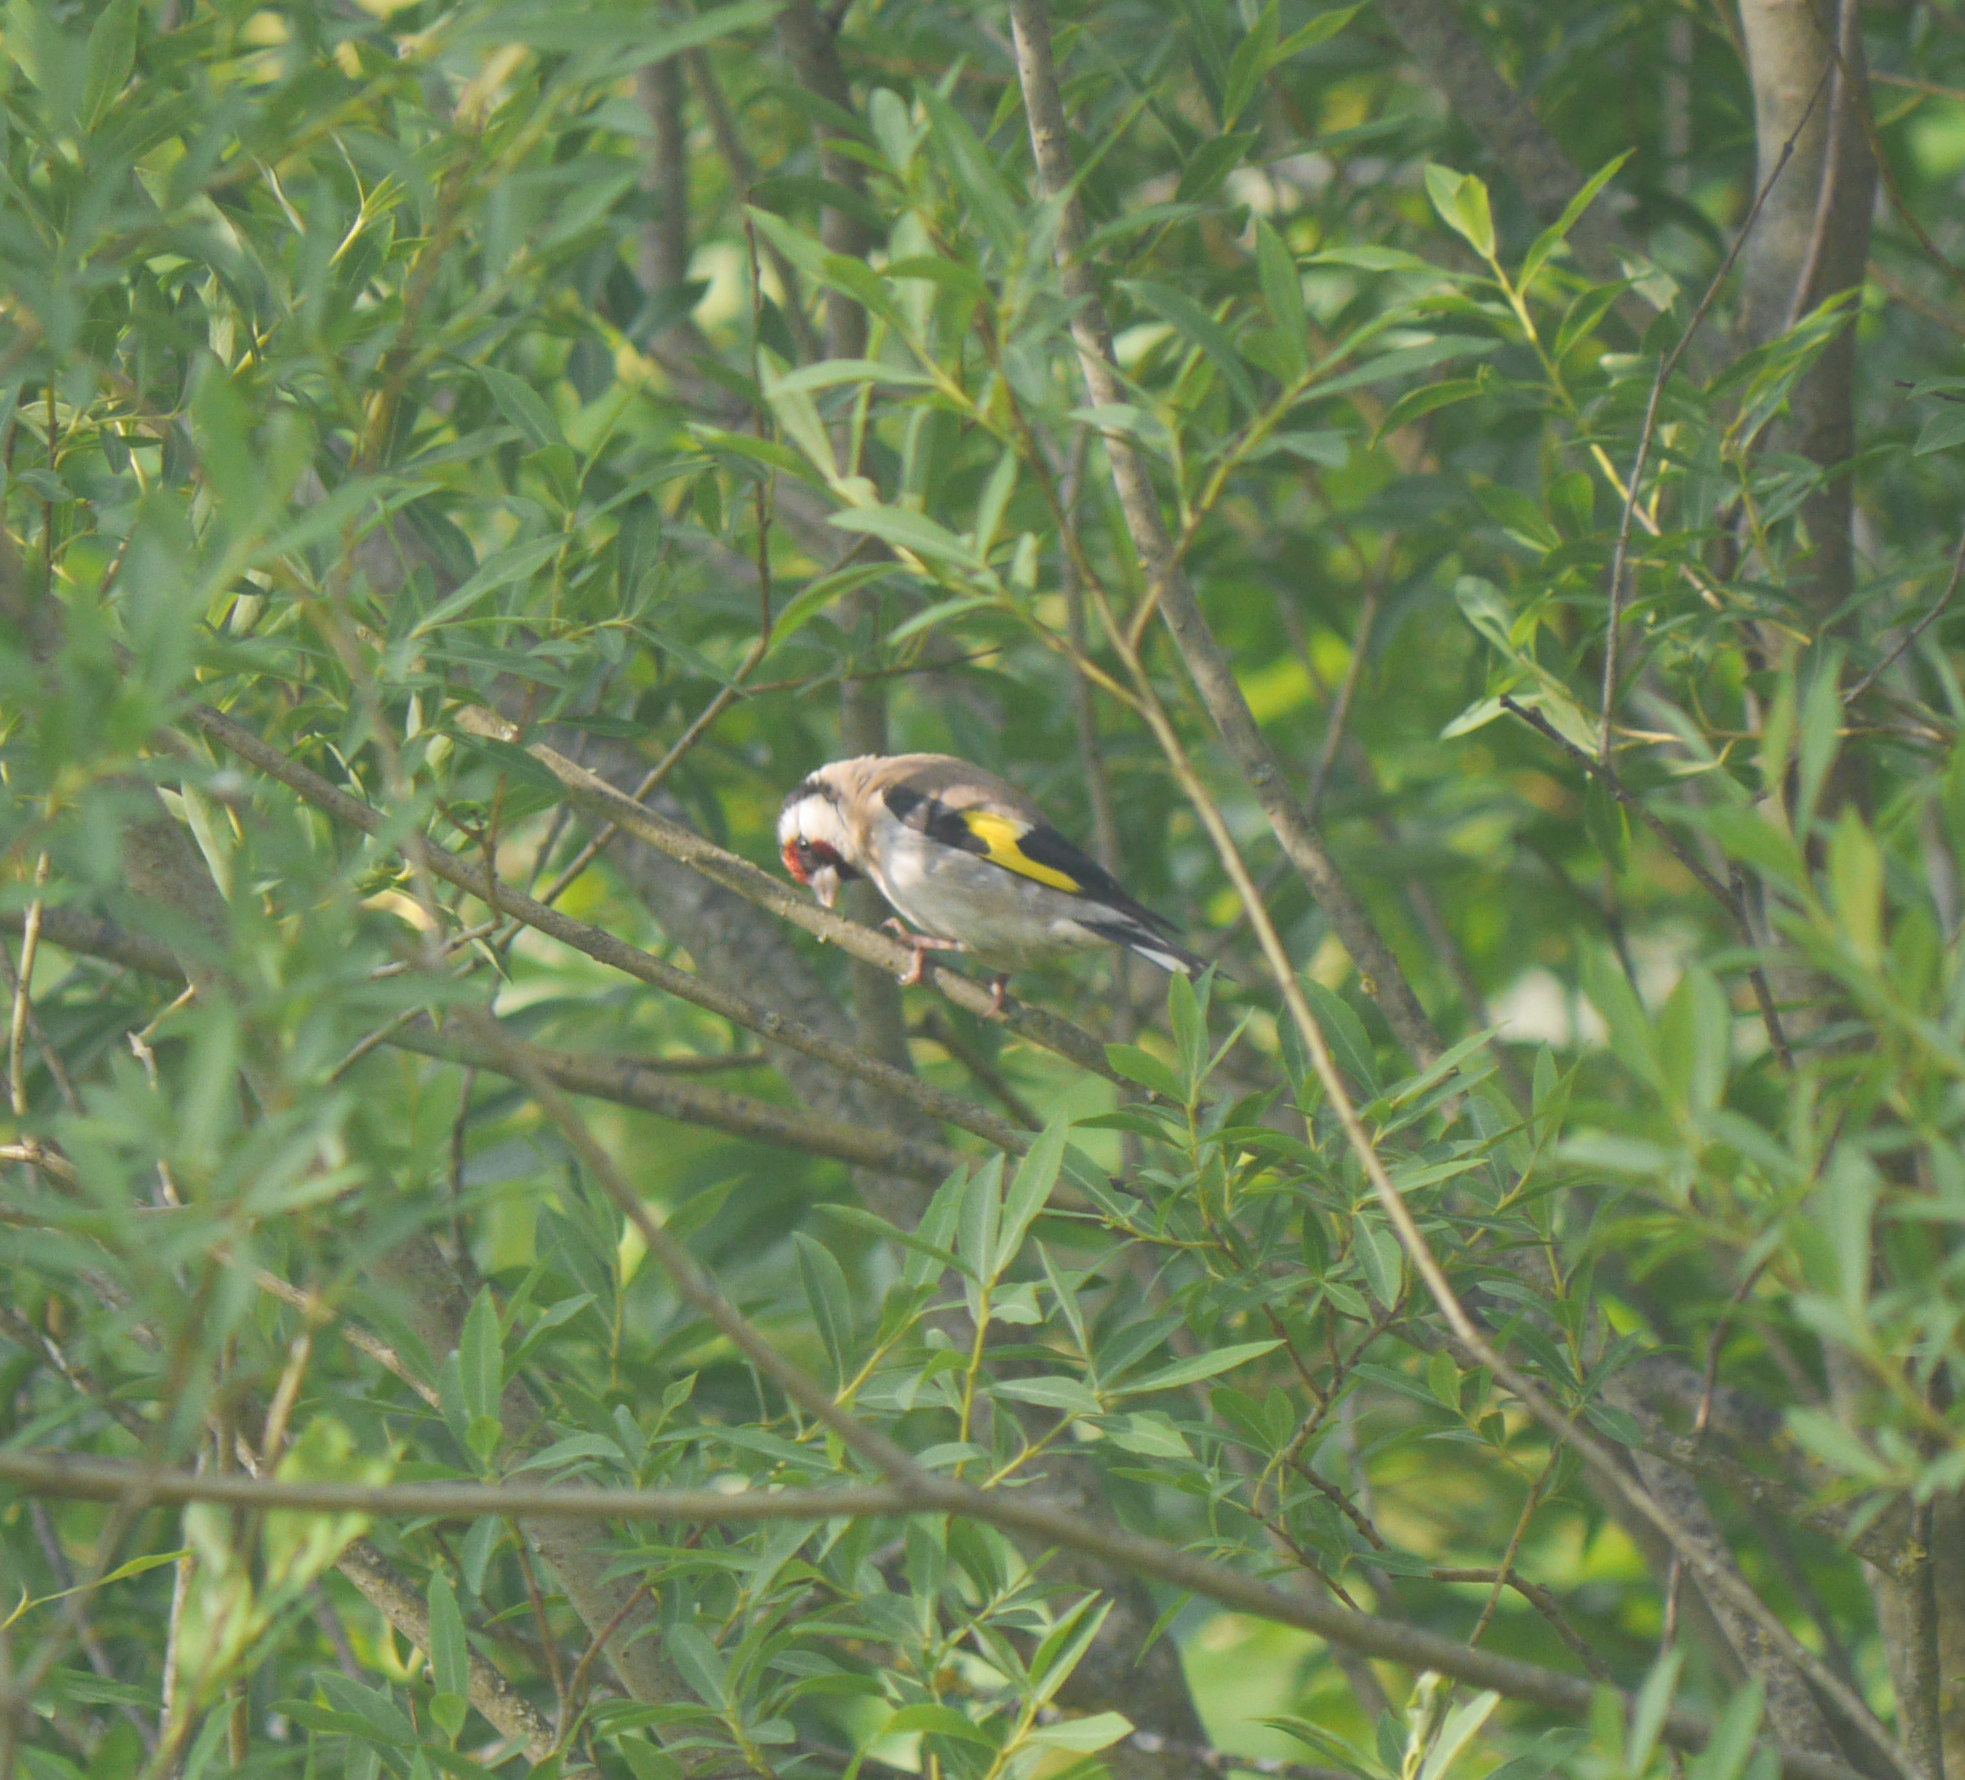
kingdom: Animalia
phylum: Chordata
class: Aves
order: Passeriformes
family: Fringillidae
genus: Carduelis
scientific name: Carduelis carduelis
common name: European goldfinch
